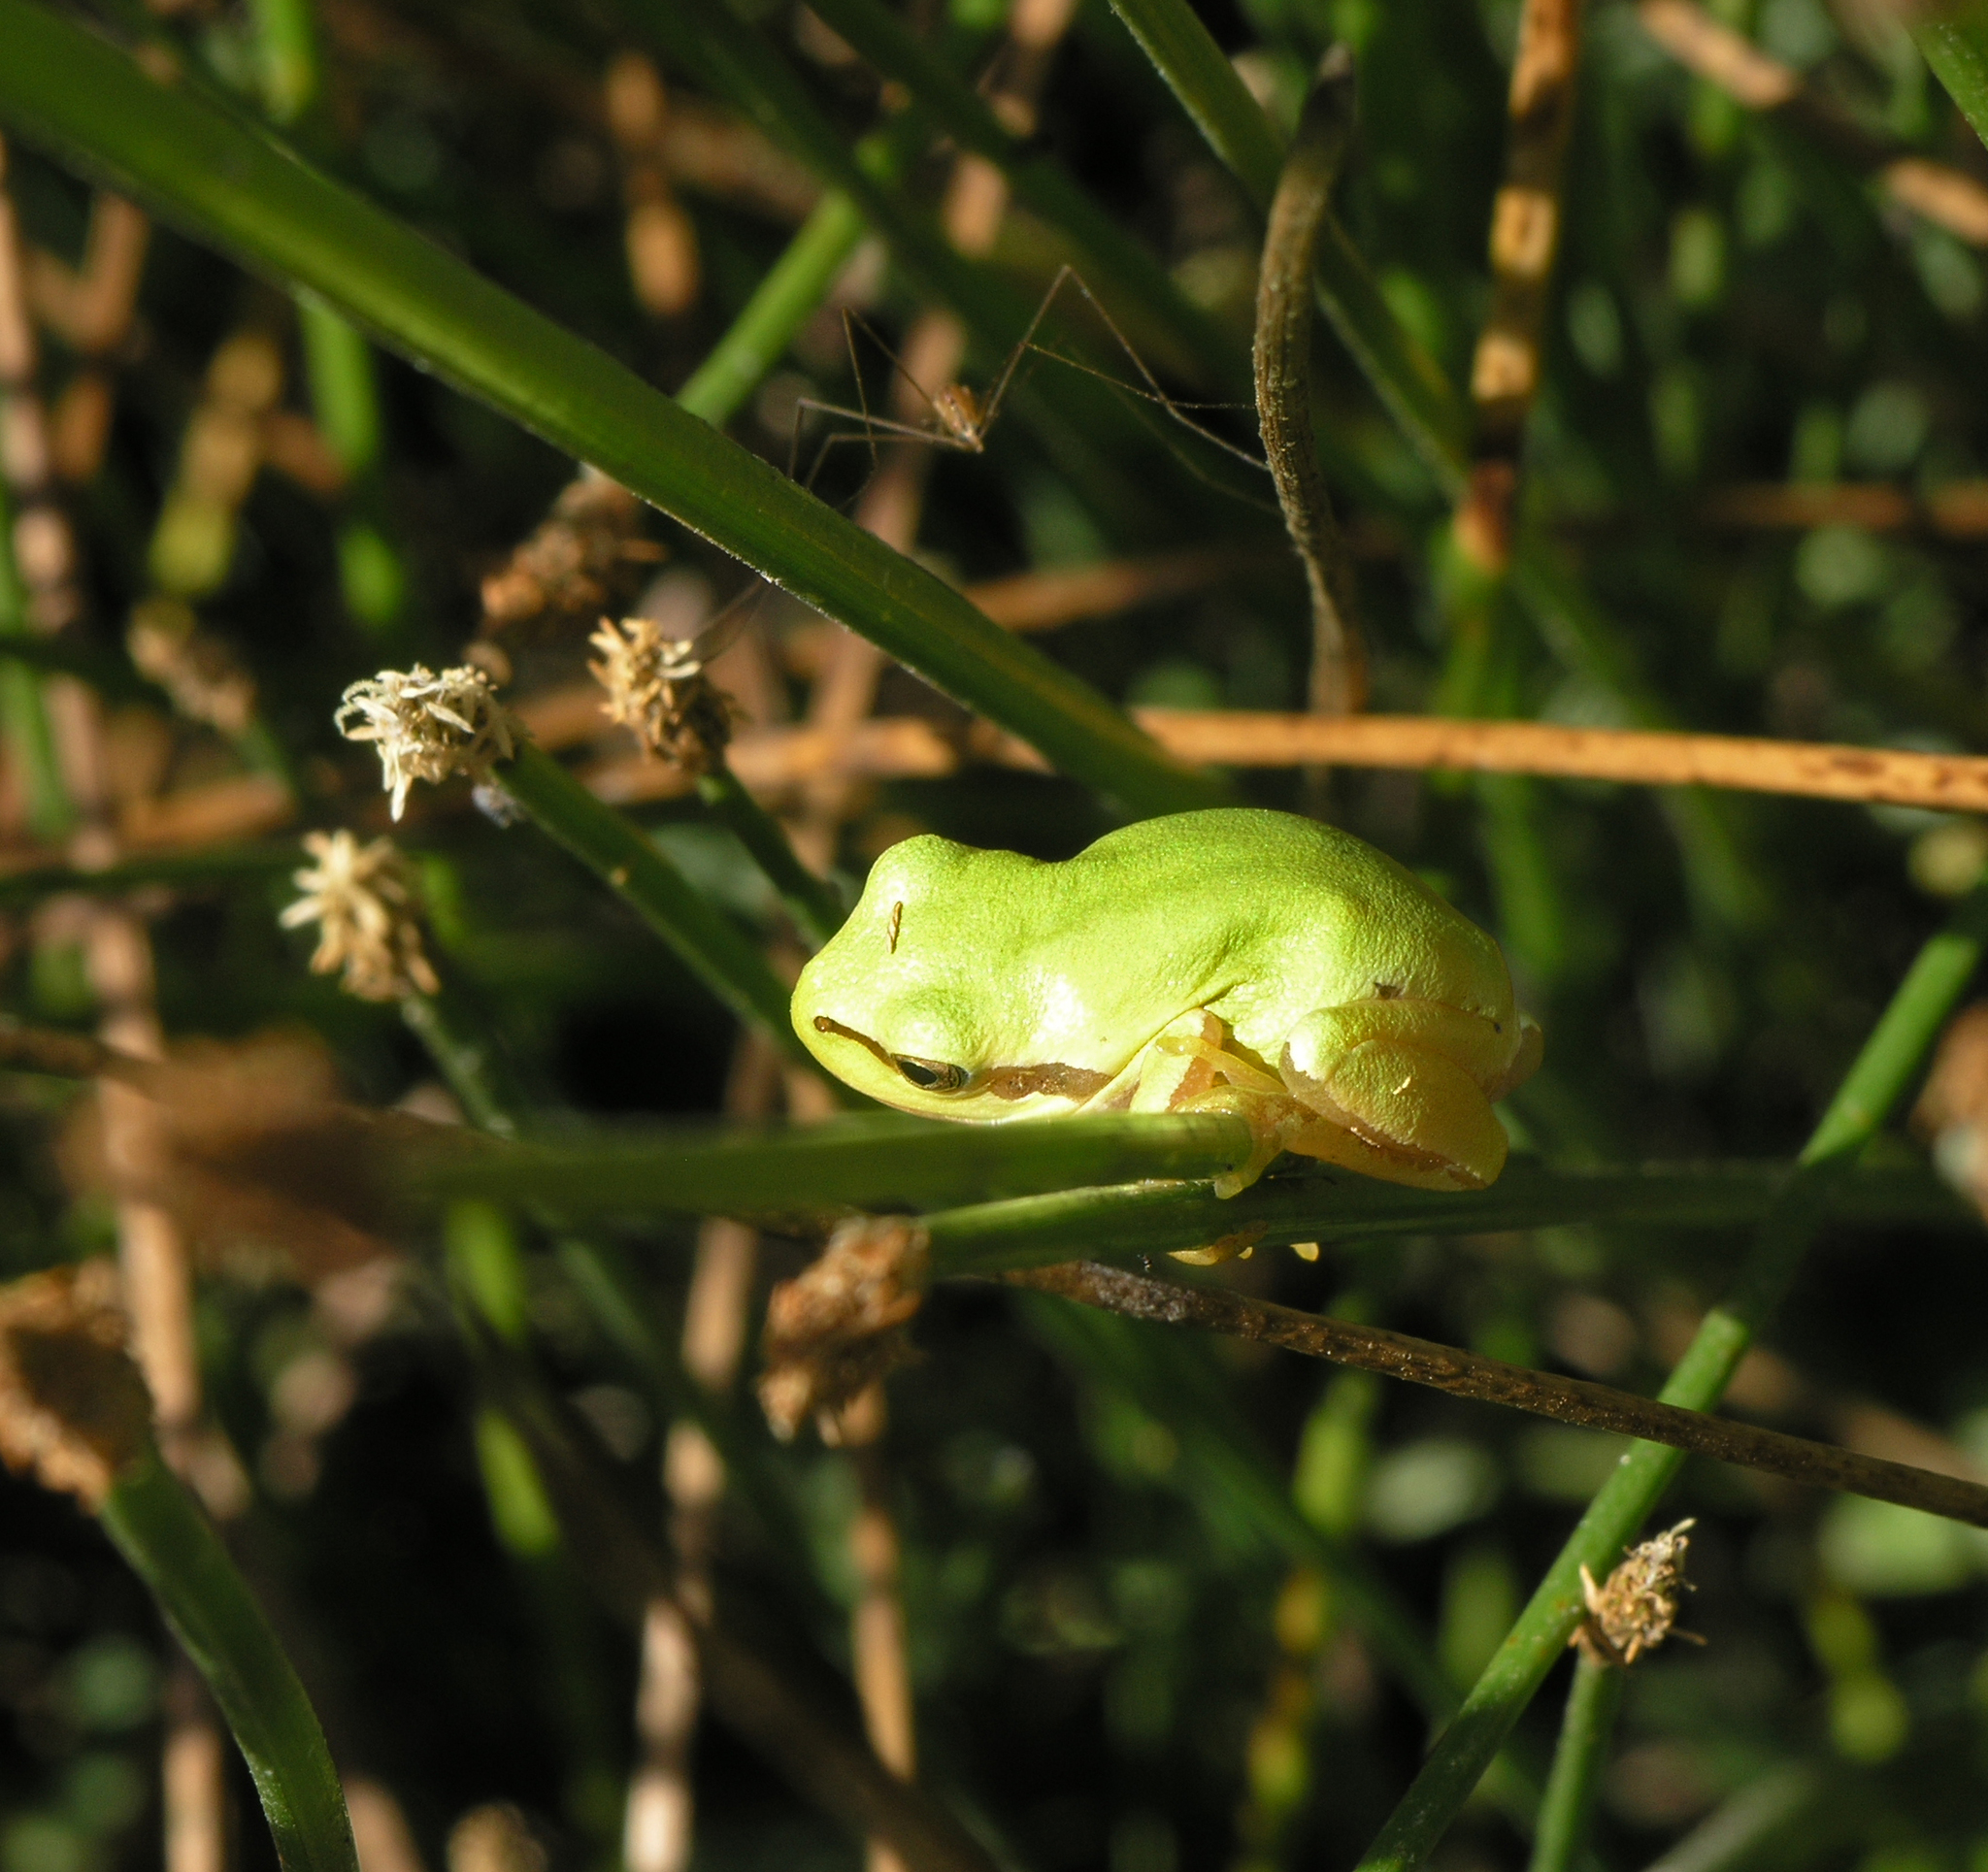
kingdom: Animalia
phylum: Chordata
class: Amphibia
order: Anura
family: Hylidae
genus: Hyla
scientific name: Hyla molleri
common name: Iberian tree frog
